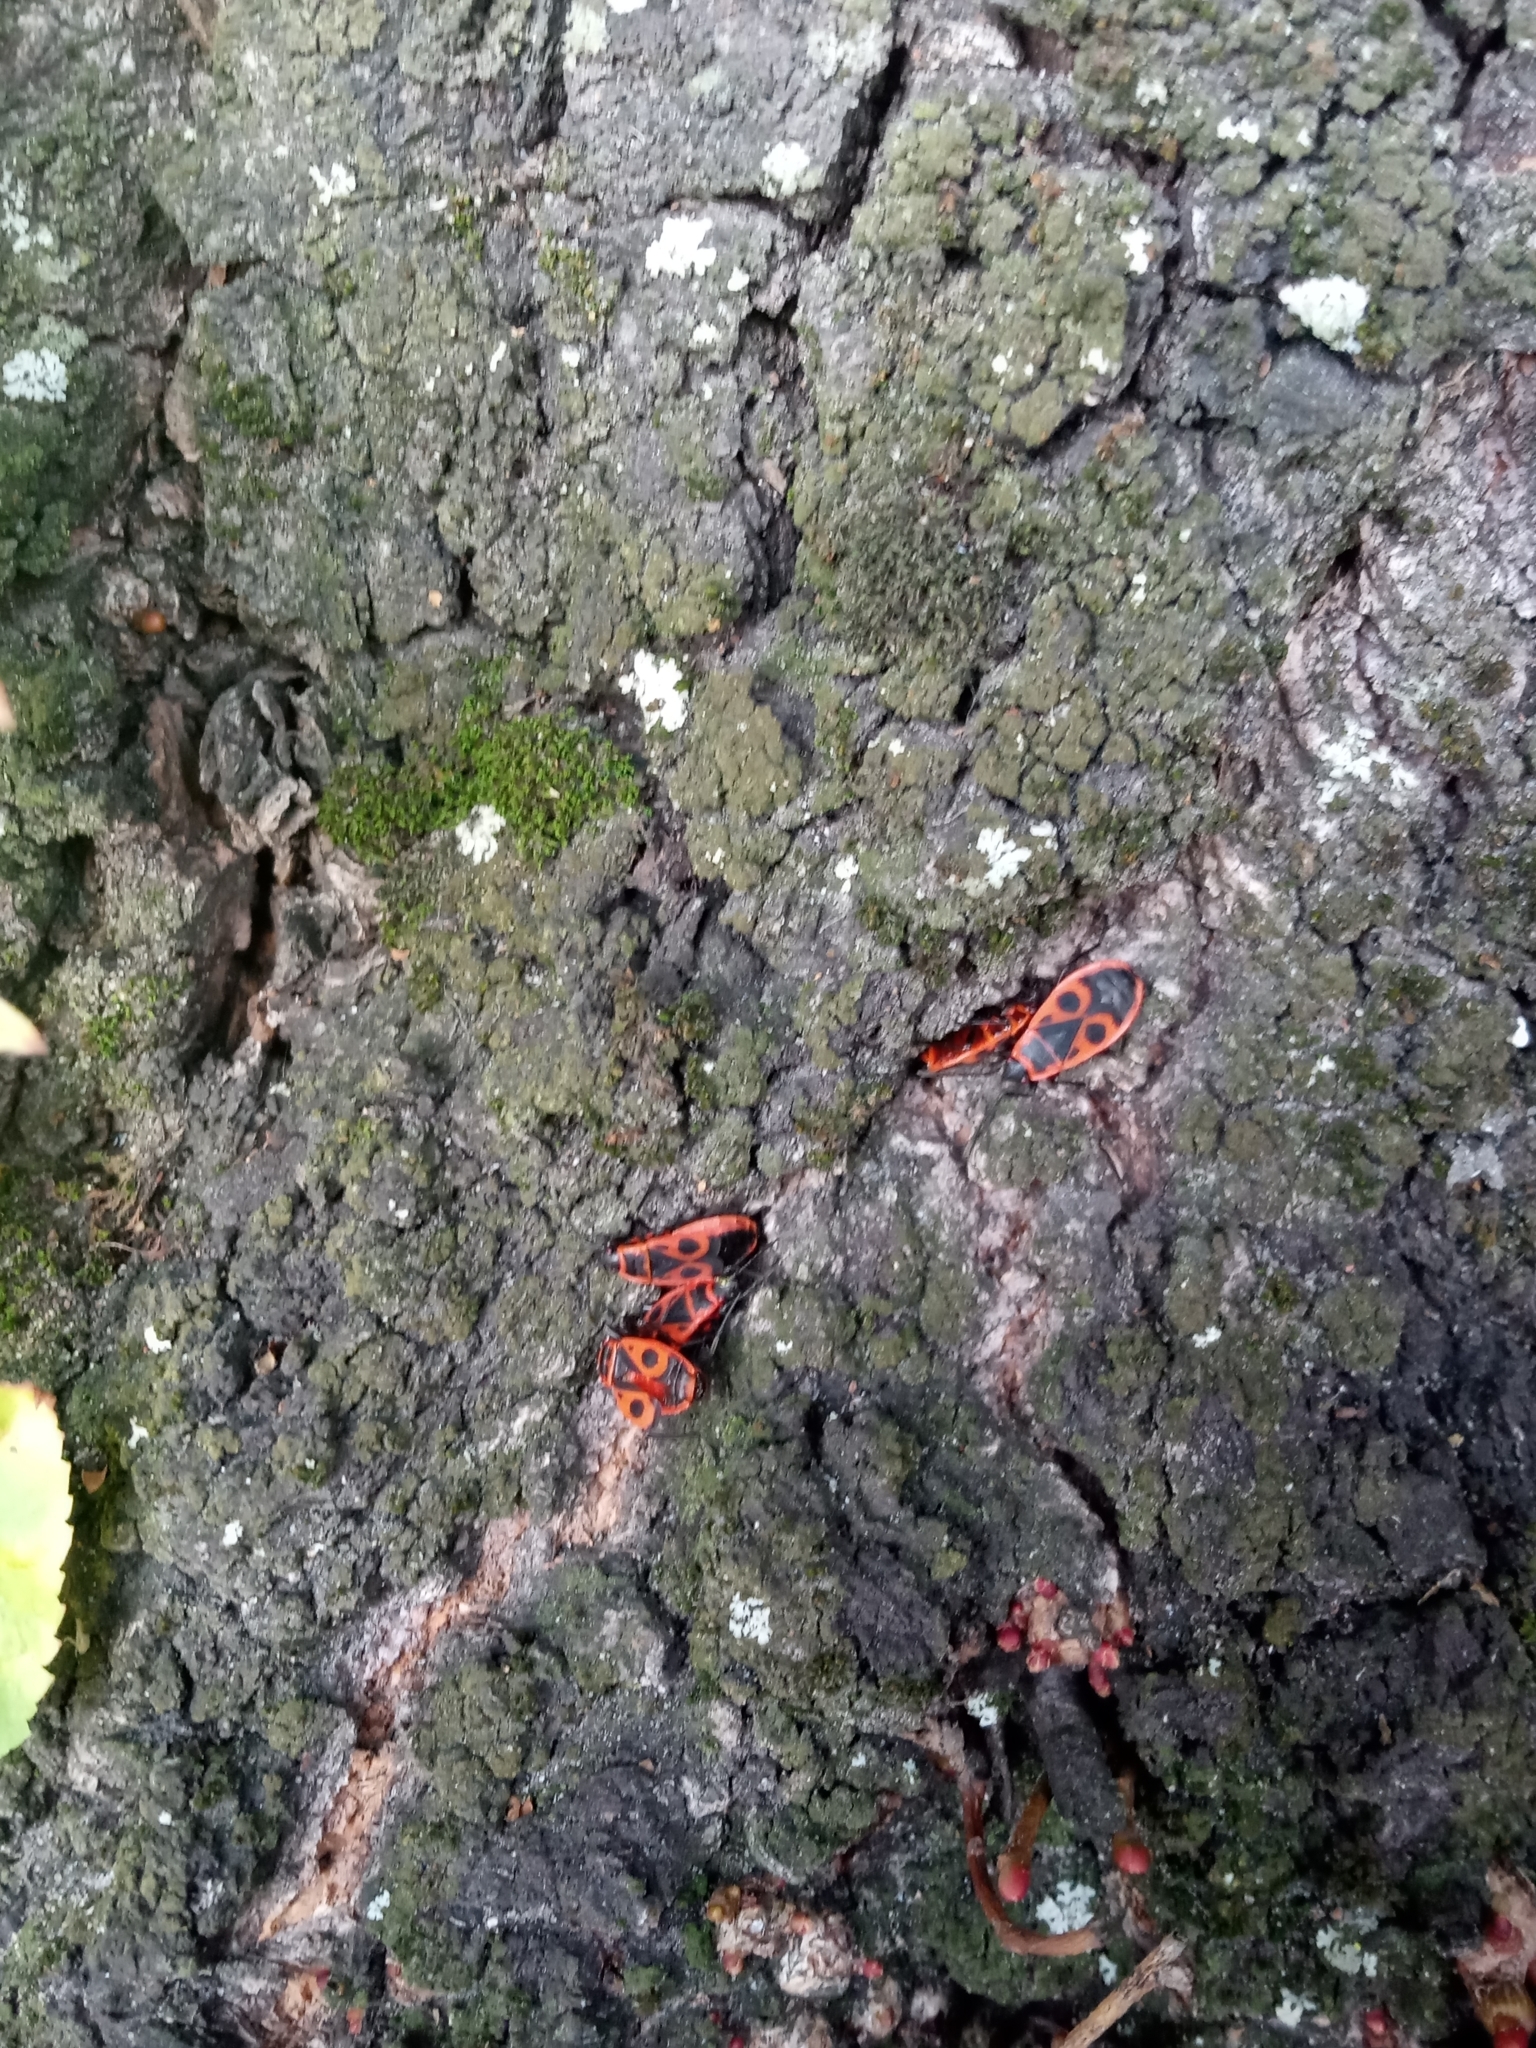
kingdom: Animalia
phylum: Arthropoda
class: Insecta
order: Hemiptera
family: Pyrrhocoridae
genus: Pyrrhocoris
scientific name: Pyrrhocoris apterus
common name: Firebug
